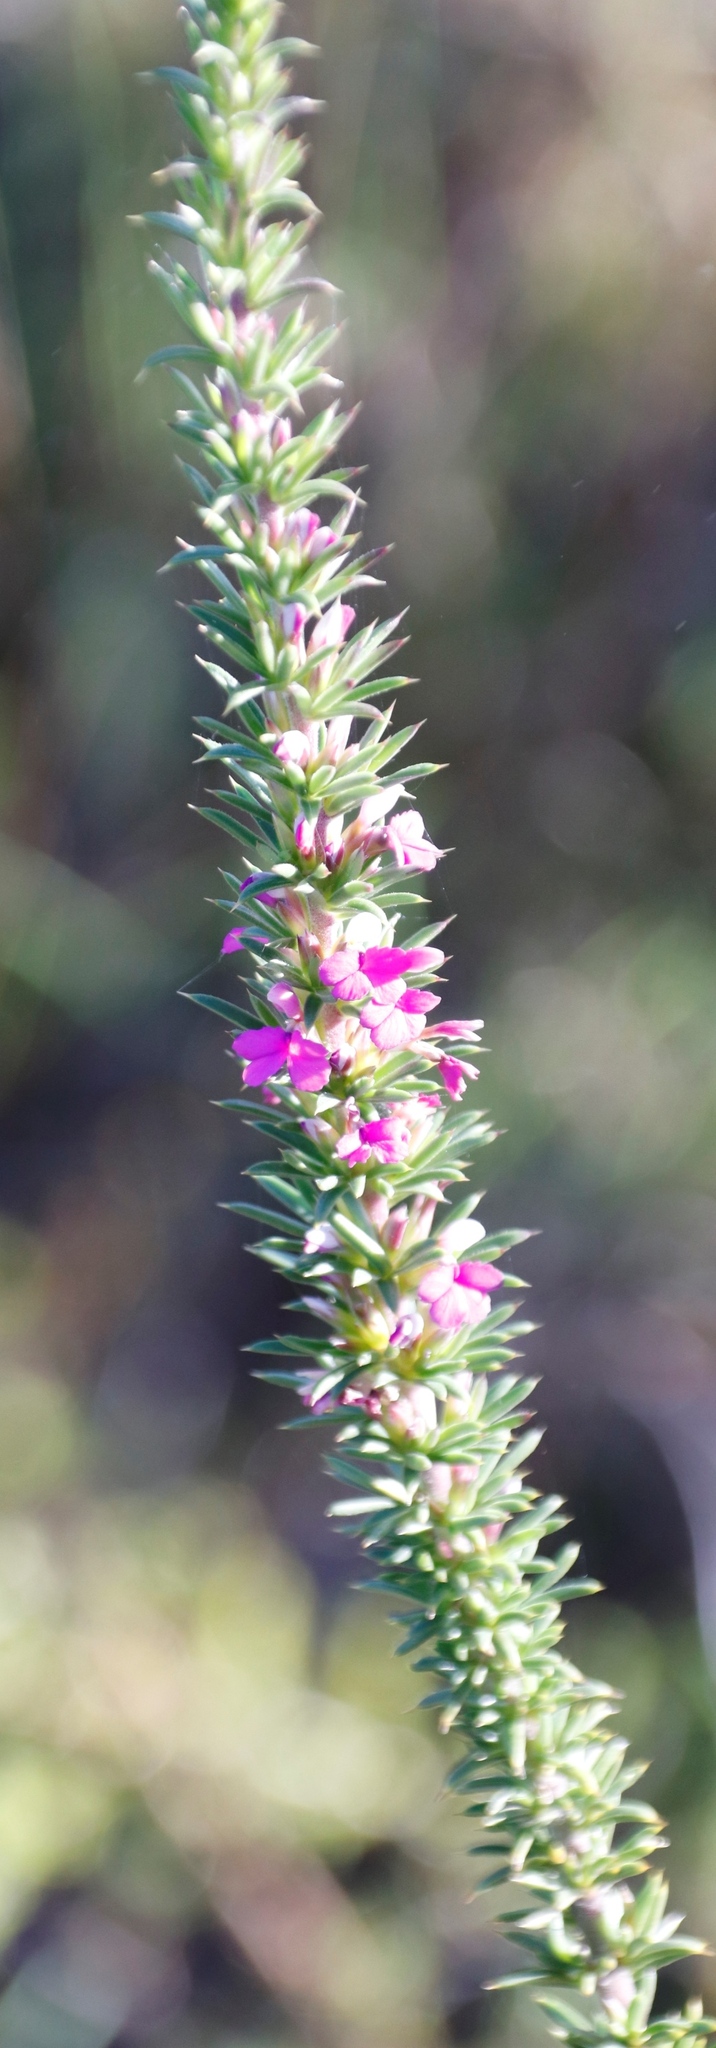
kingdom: Plantae
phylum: Tracheophyta
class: Magnoliopsida
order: Fabales
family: Polygalaceae
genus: Muraltia
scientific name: Muraltia heisteria
